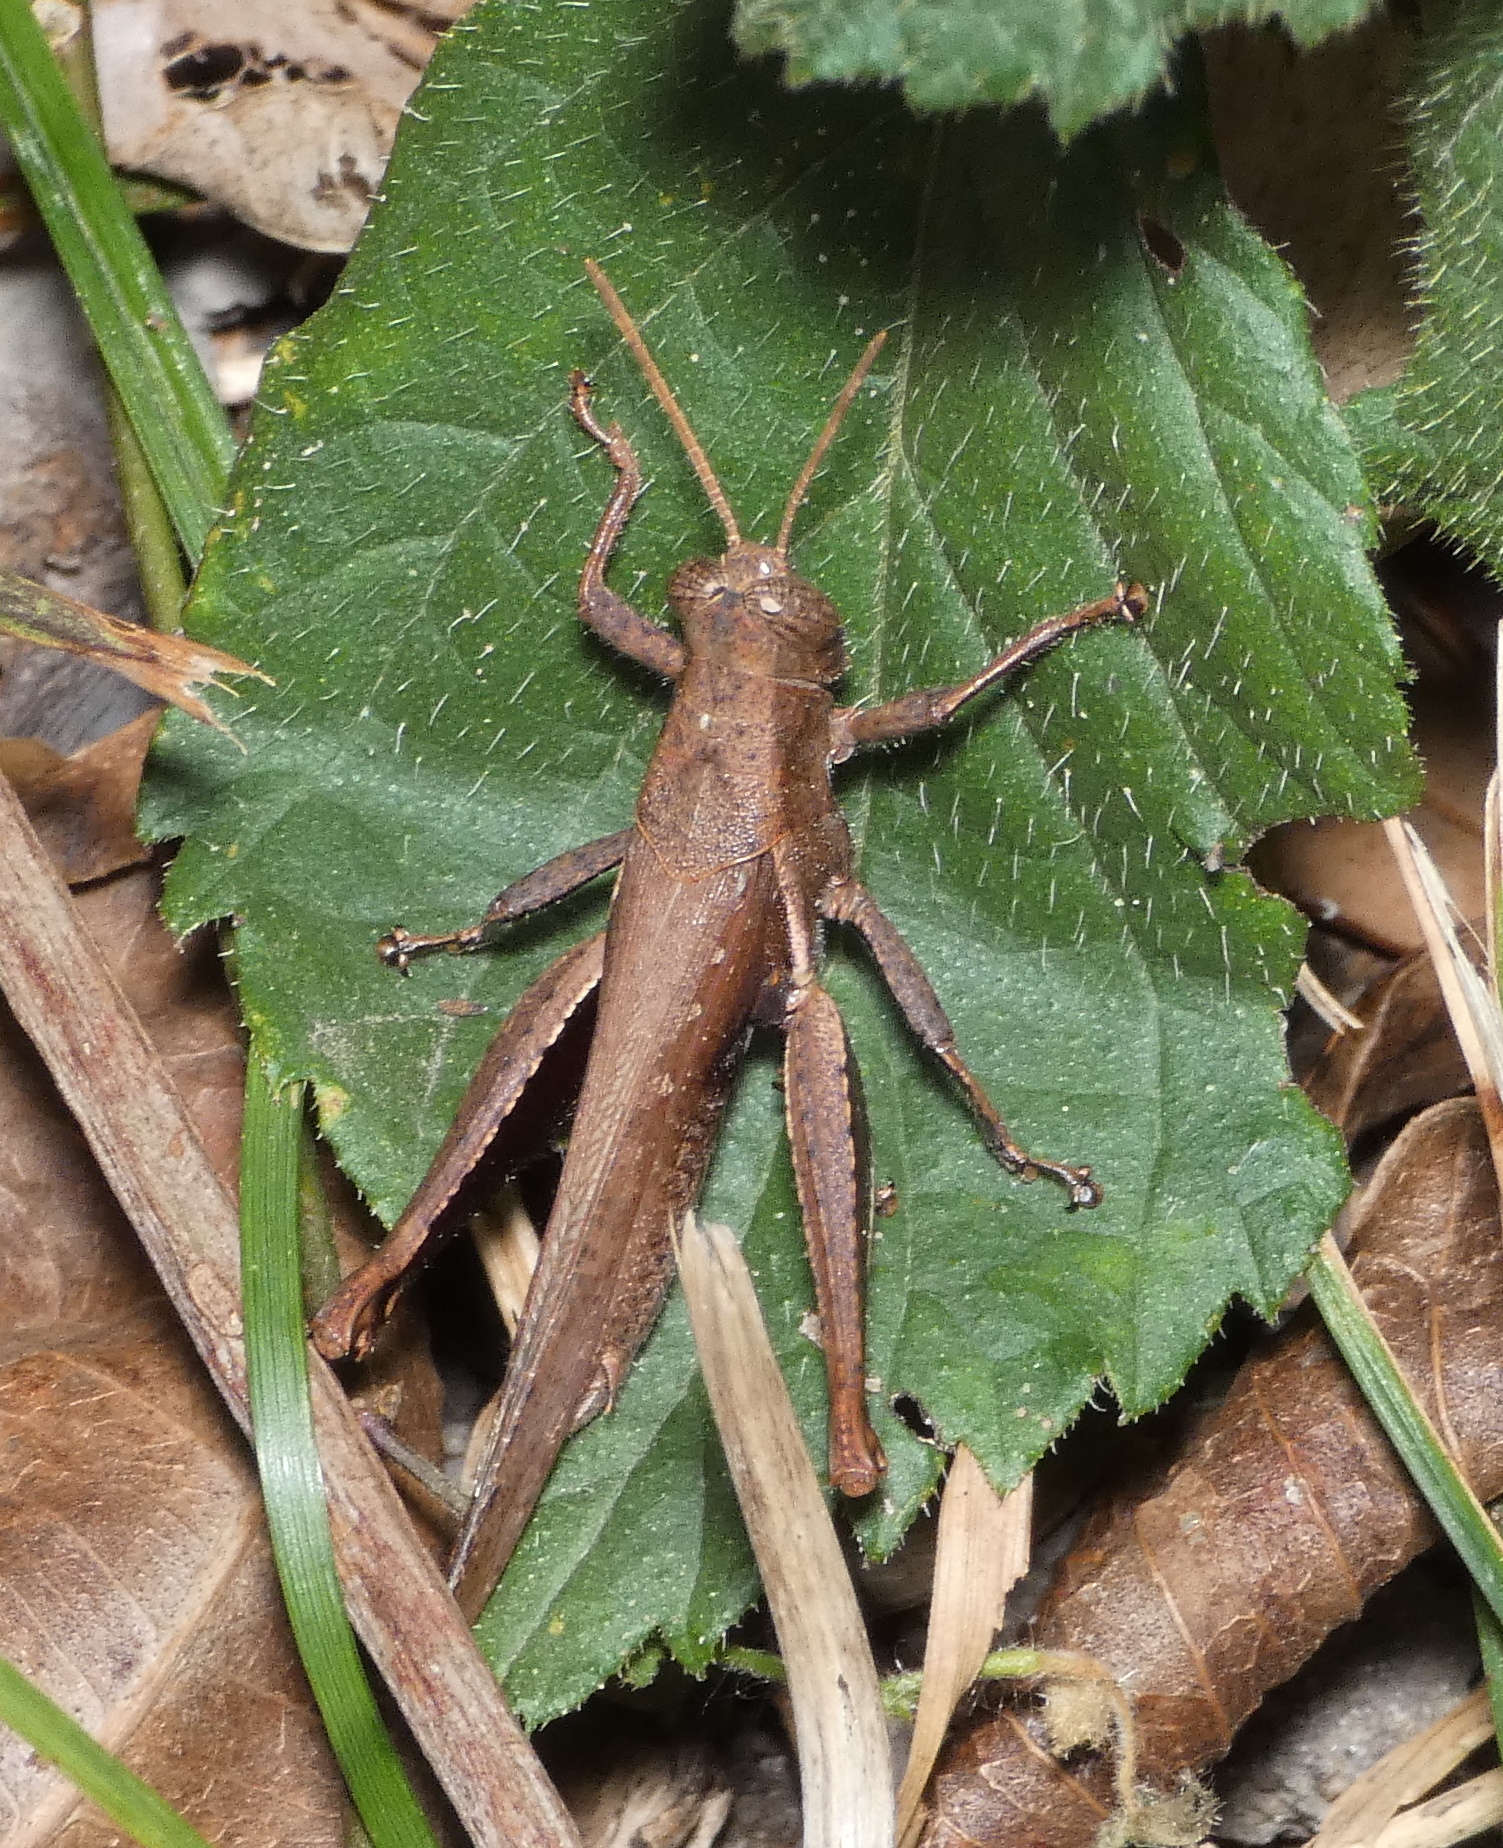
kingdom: Animalia
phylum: Arthropoda
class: Insecta
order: Orthoptera
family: Acrididae
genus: Abracris
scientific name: Abracris flavolineata
